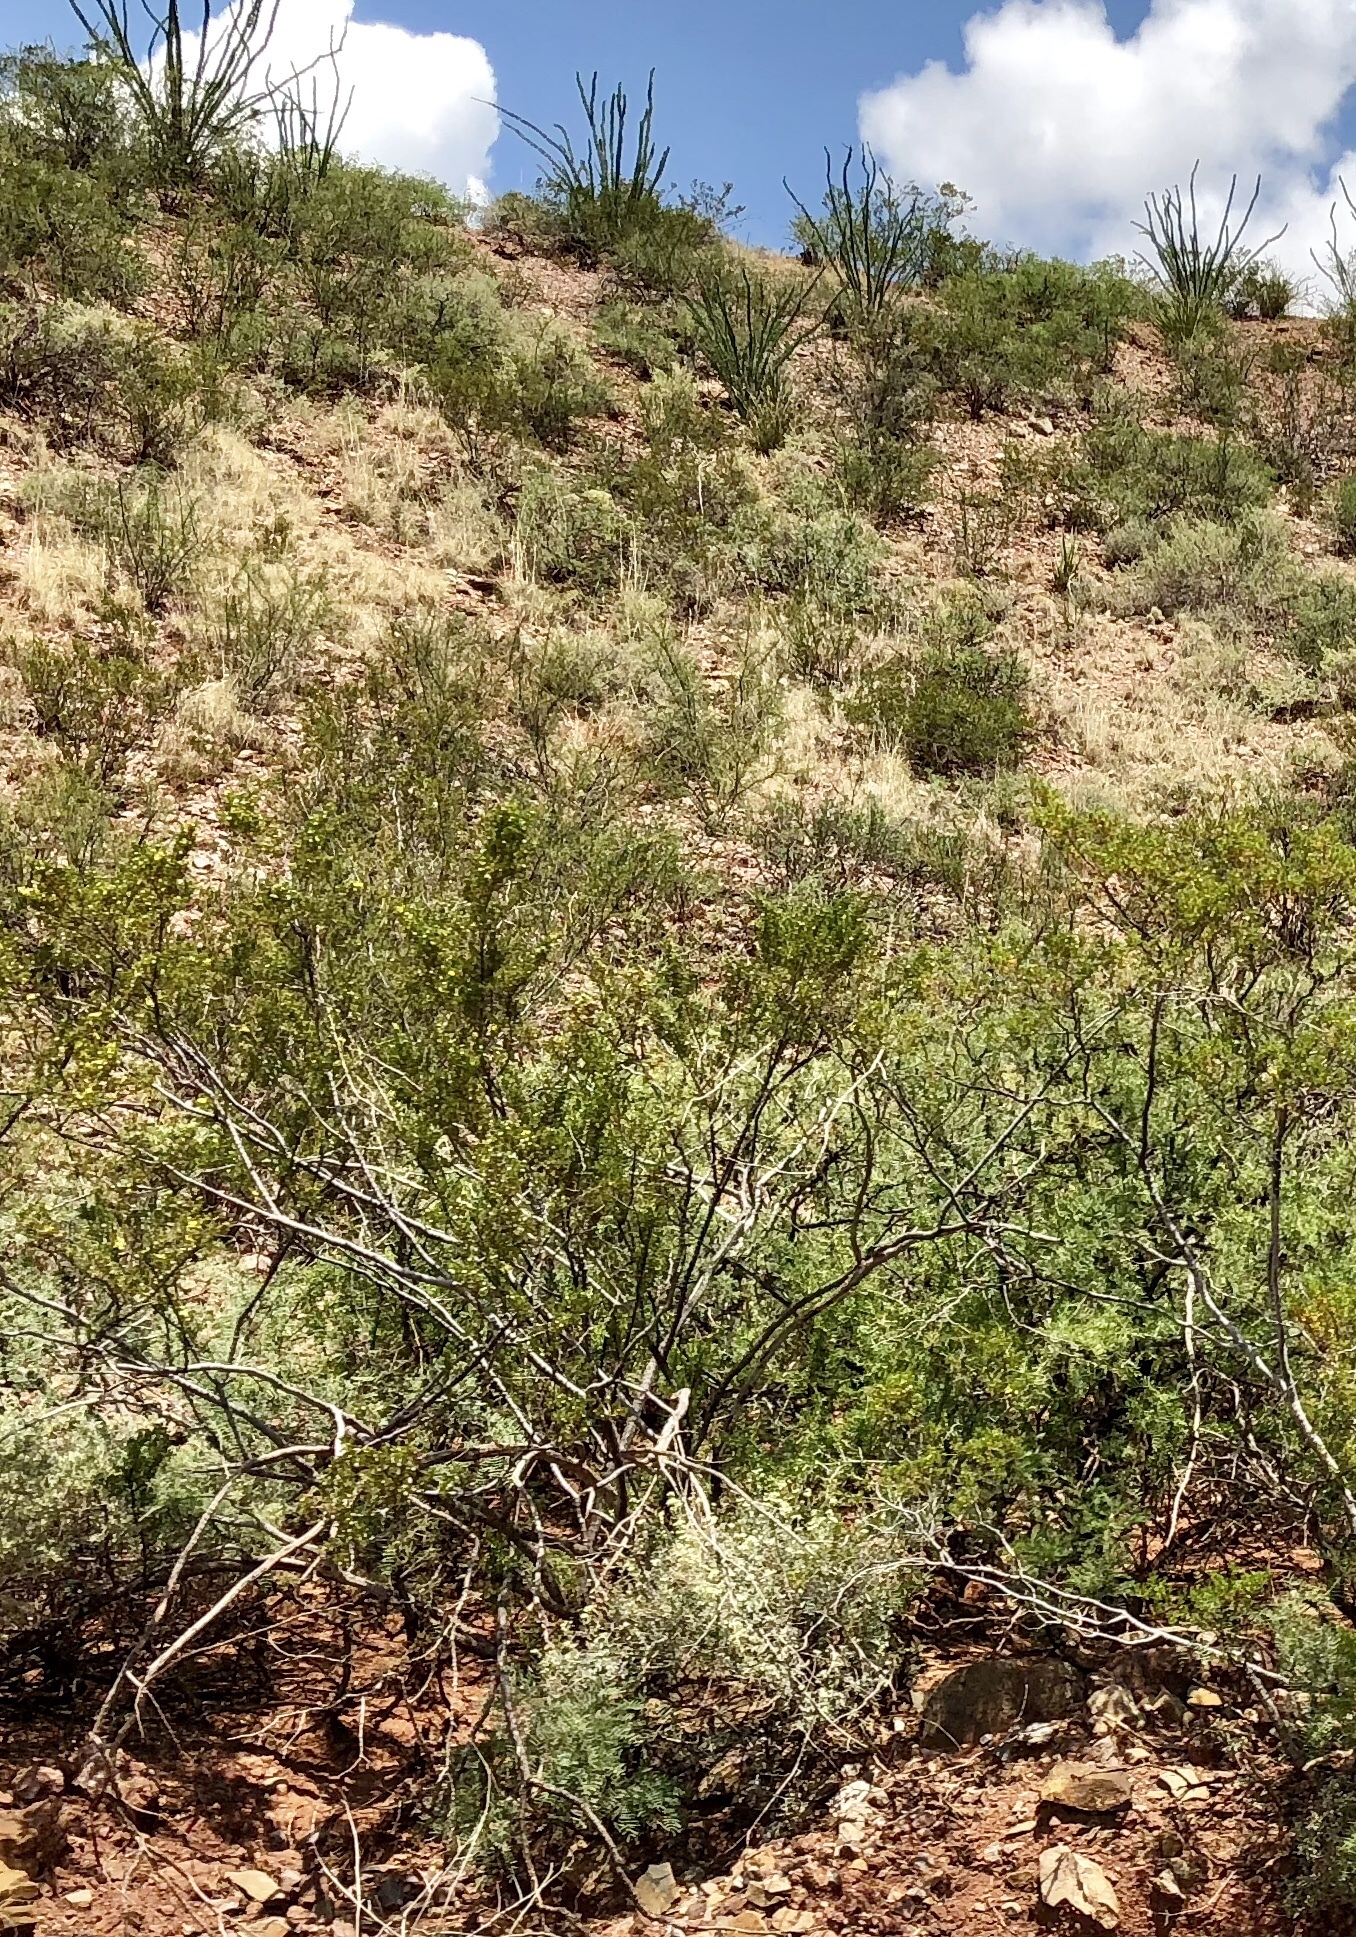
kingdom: Plantae
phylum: Tracheophyta
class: Magnoliopsida
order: Zygophyllales
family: Zygophyllaceae
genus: Larrea
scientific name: Larrea tridentata
